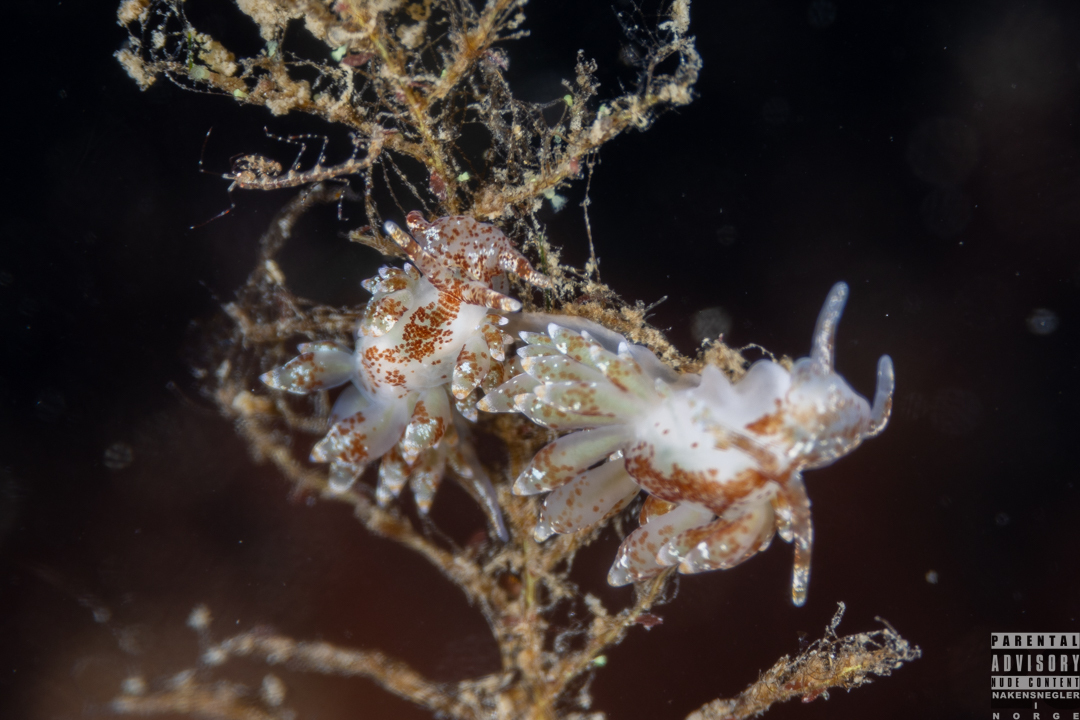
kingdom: Animalia
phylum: Mollusca
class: Gastropoda
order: Nudibranchia
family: Eubranchidae
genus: Amphorina
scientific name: Amphorina pallida
